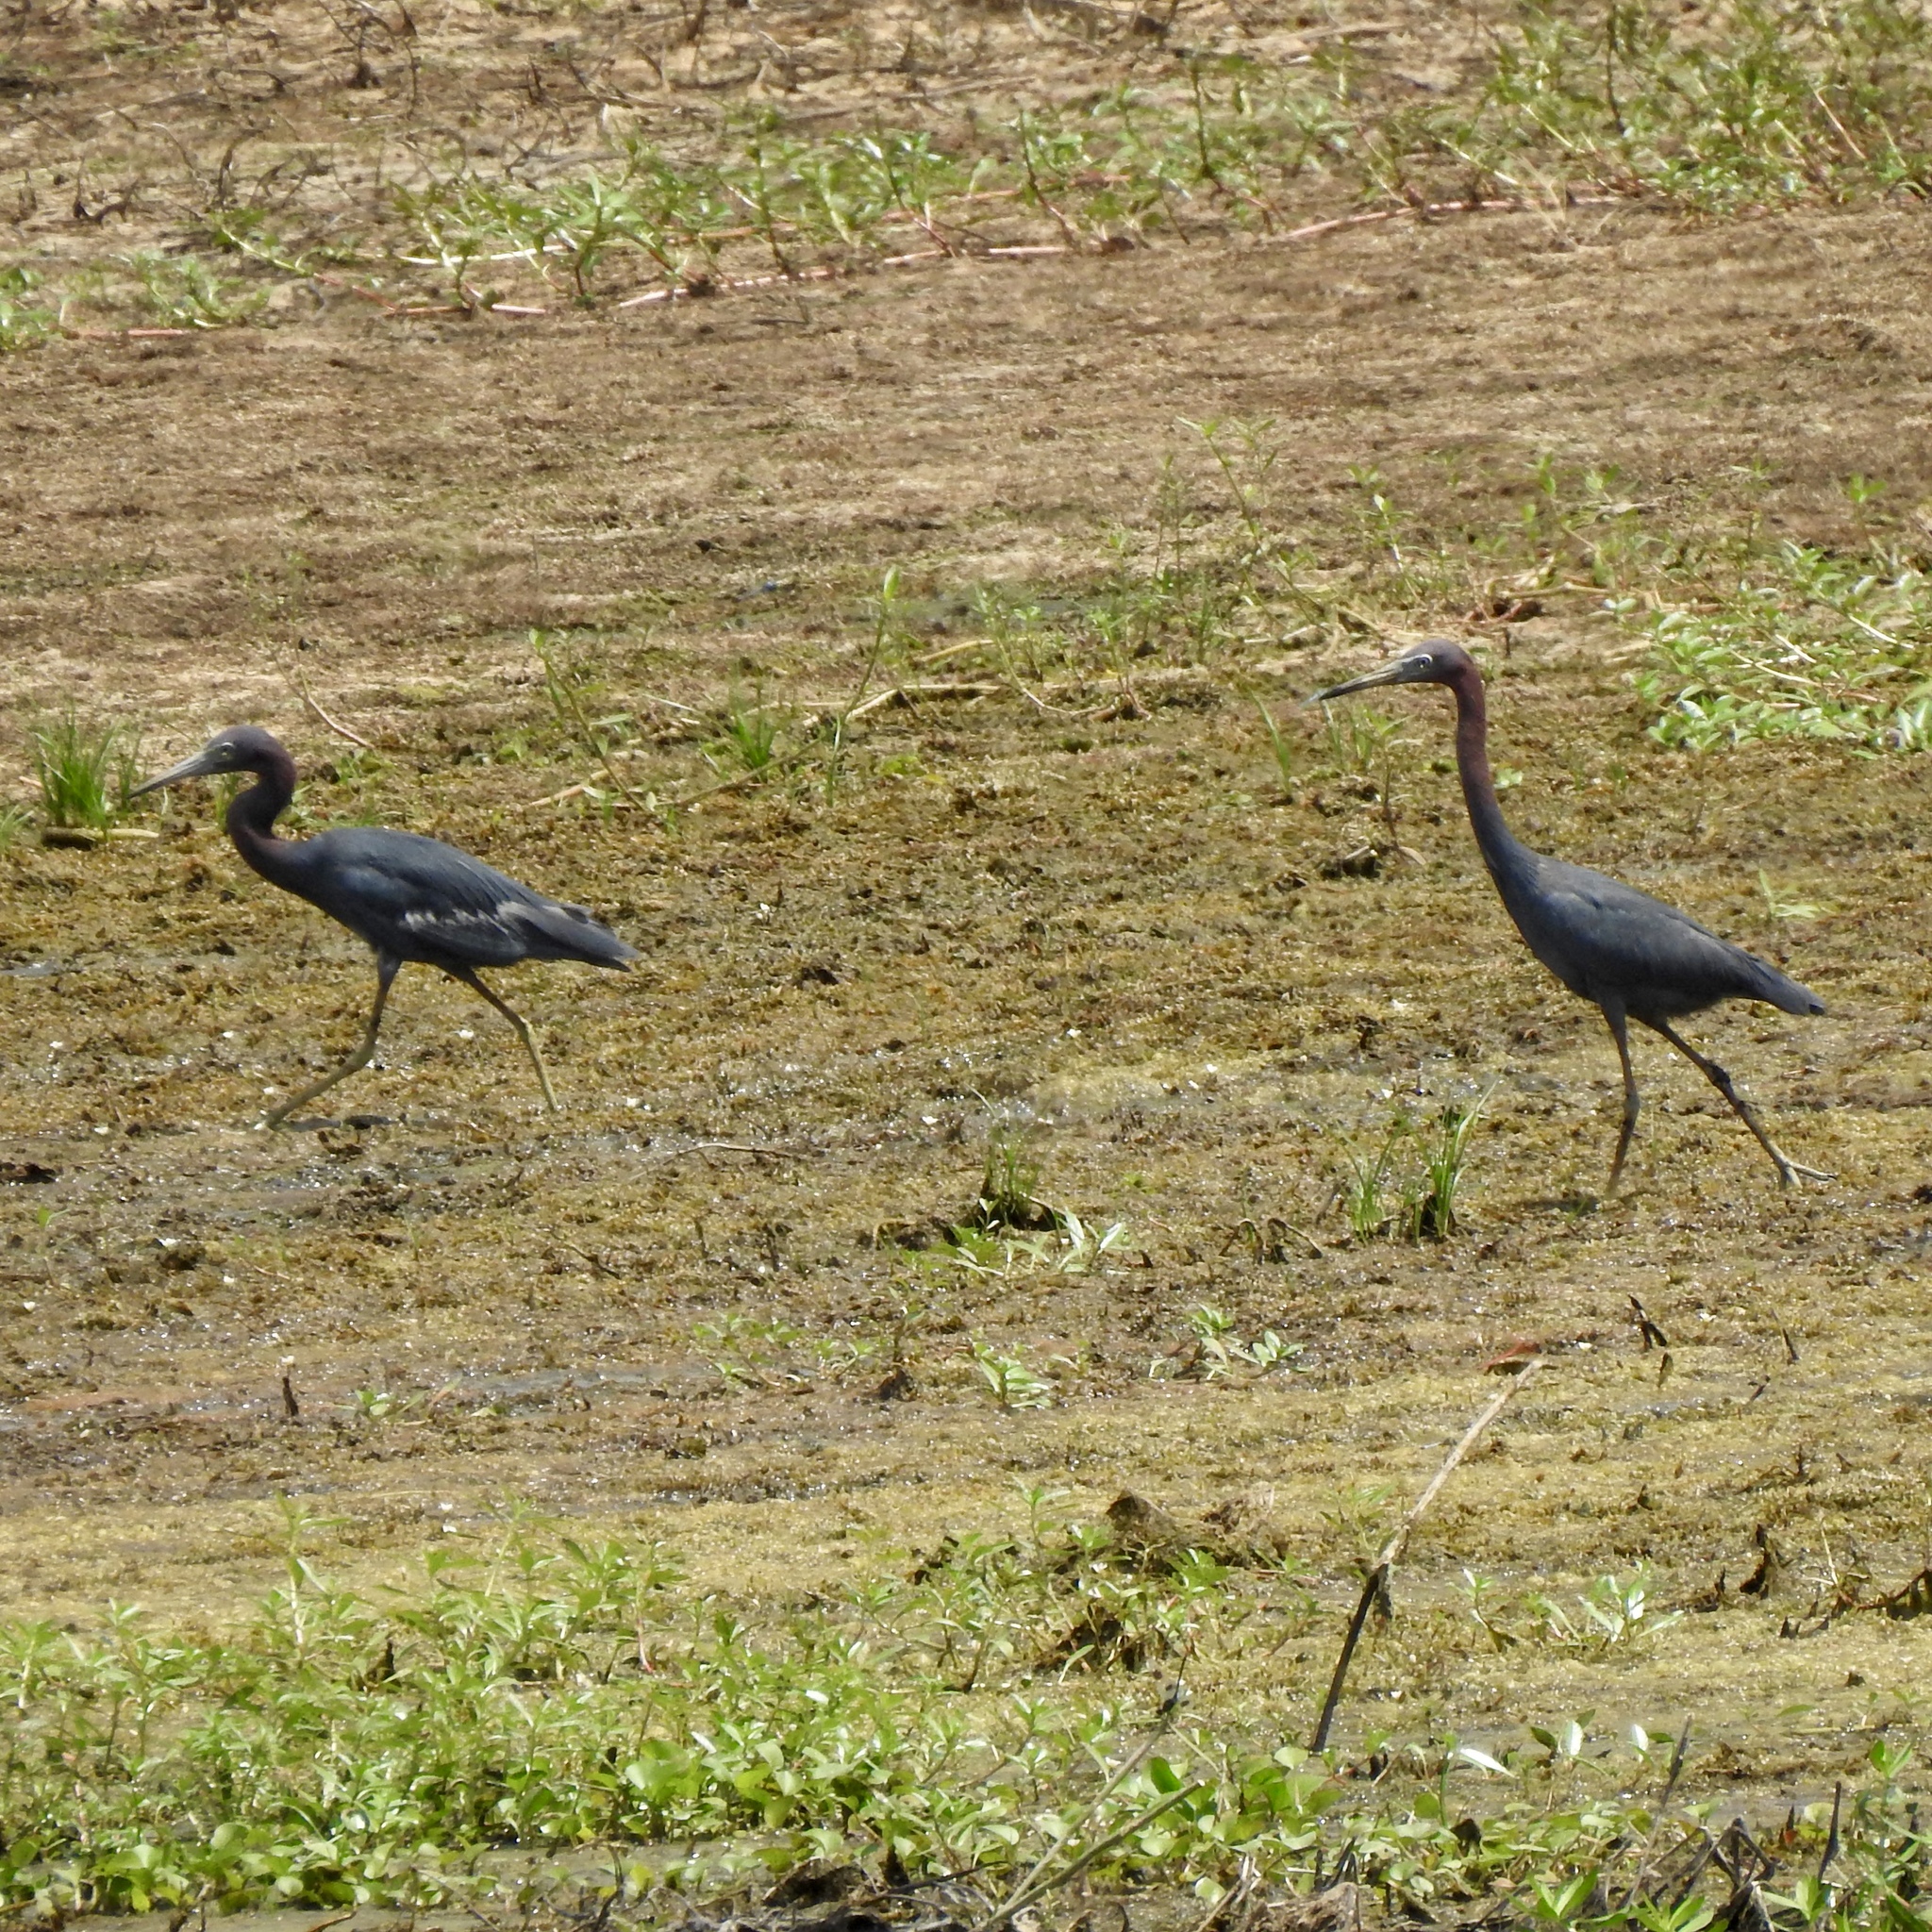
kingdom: Animalia
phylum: Chordata
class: Aves
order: Pelecaniformes
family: Ardeidae
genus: Egretta
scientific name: Egretta caerulea
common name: Little blue heron
